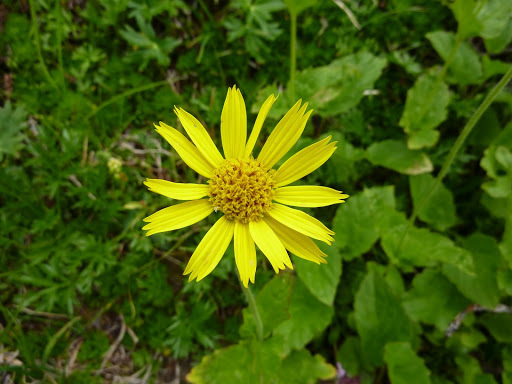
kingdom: Plantae
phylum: Tracheophyta
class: Magnoliopsida
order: Asterales
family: Asteraceae
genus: Arnica
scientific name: Arnica latifolia
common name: Arnica
